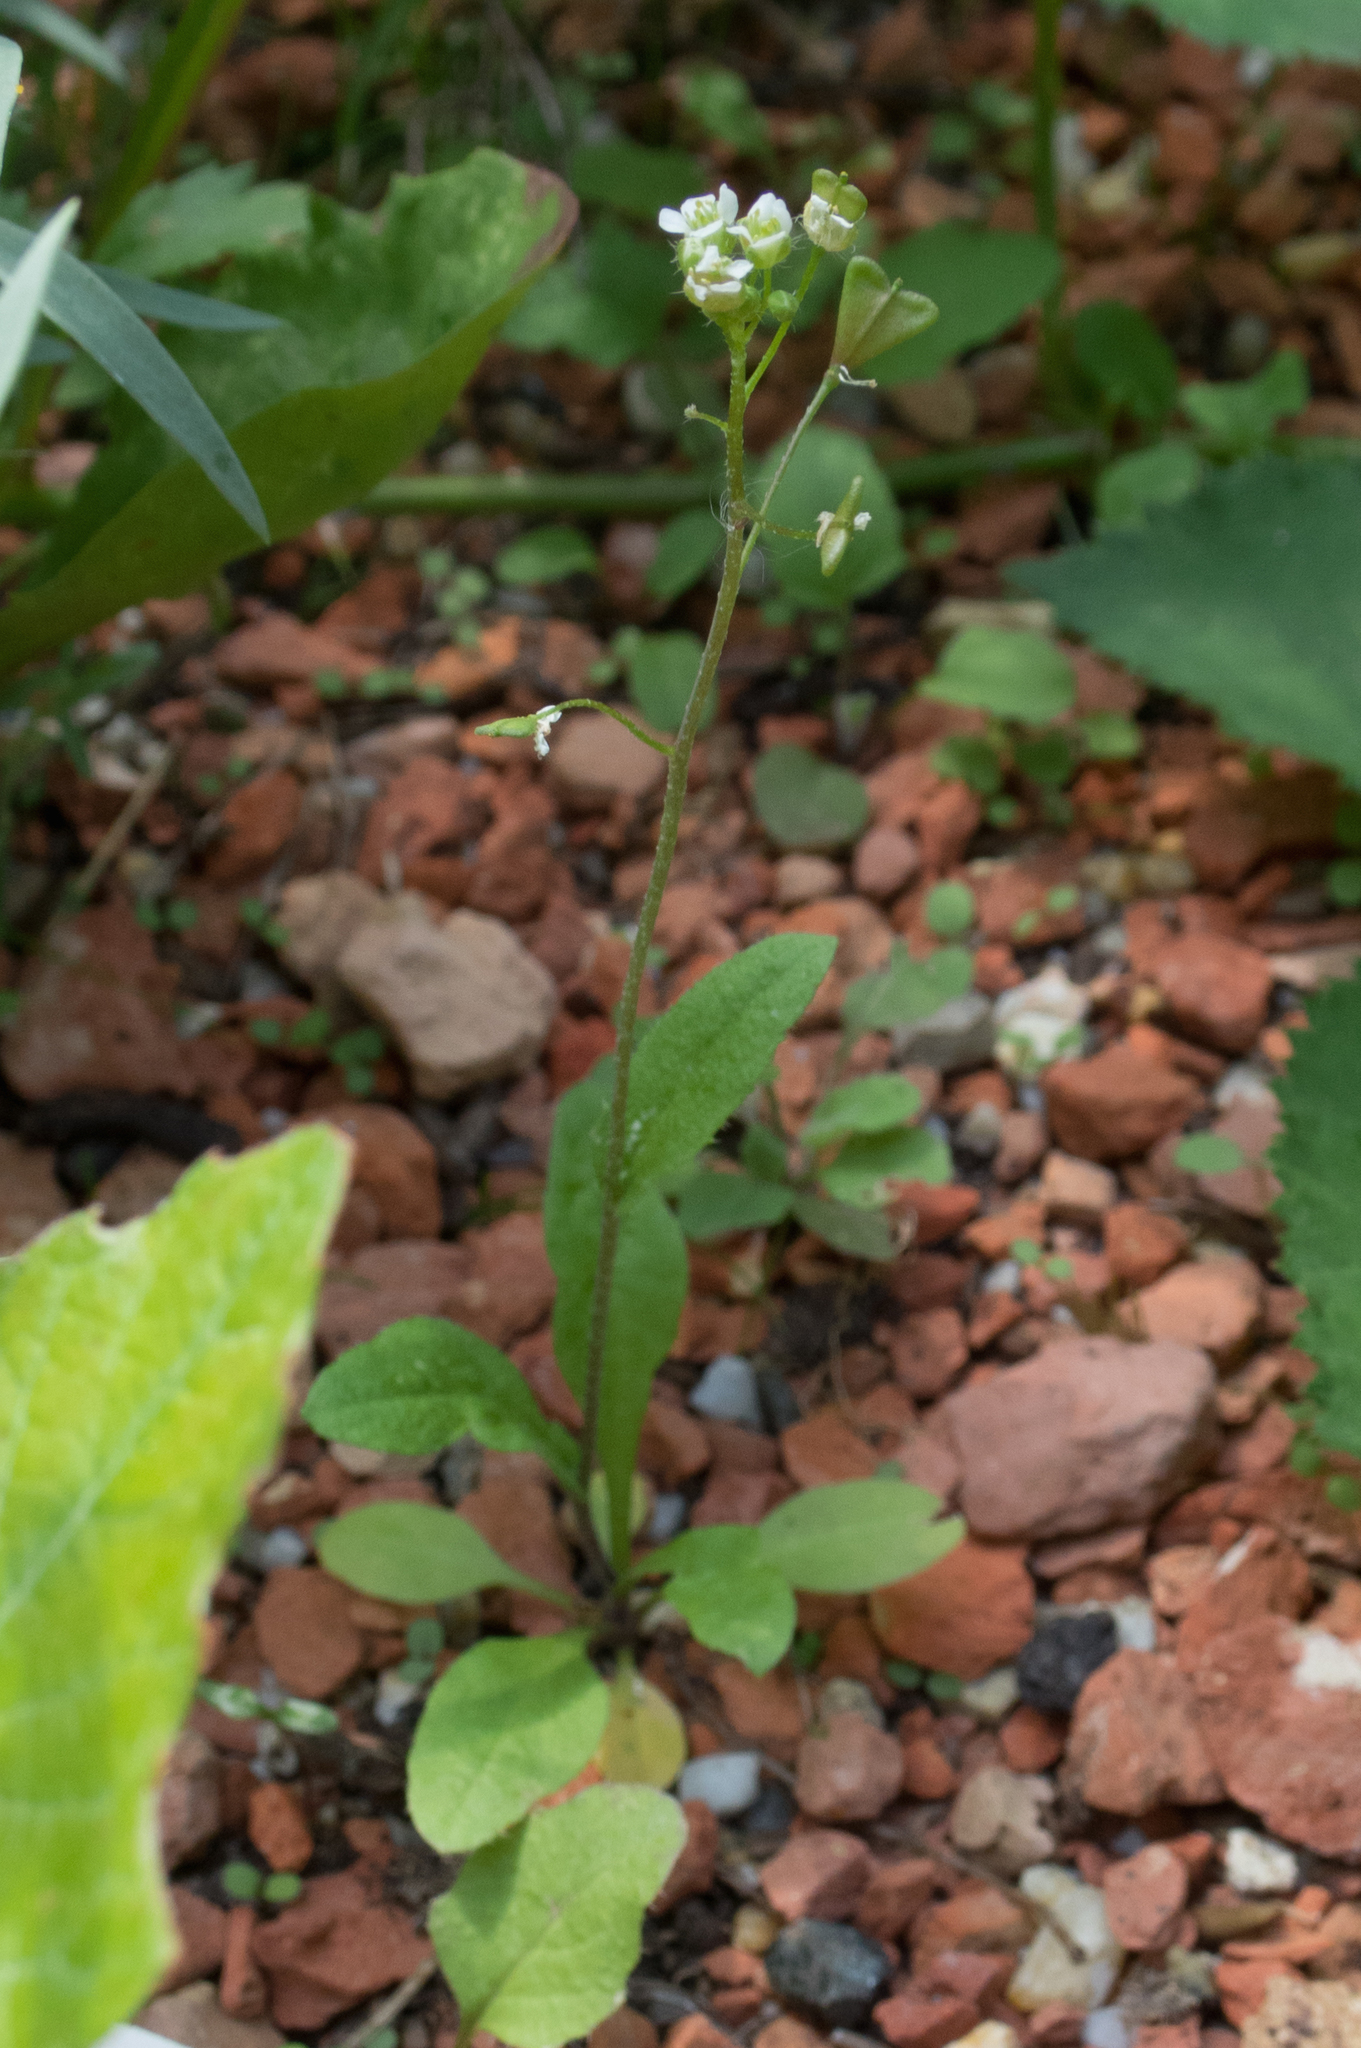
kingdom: Plantae
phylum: Tracheophyta
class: Magnoliopsida
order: Brassicales
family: Brassicaceae
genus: Capsella
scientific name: Capsella bursa-pastoris
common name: Shepherd's purse
